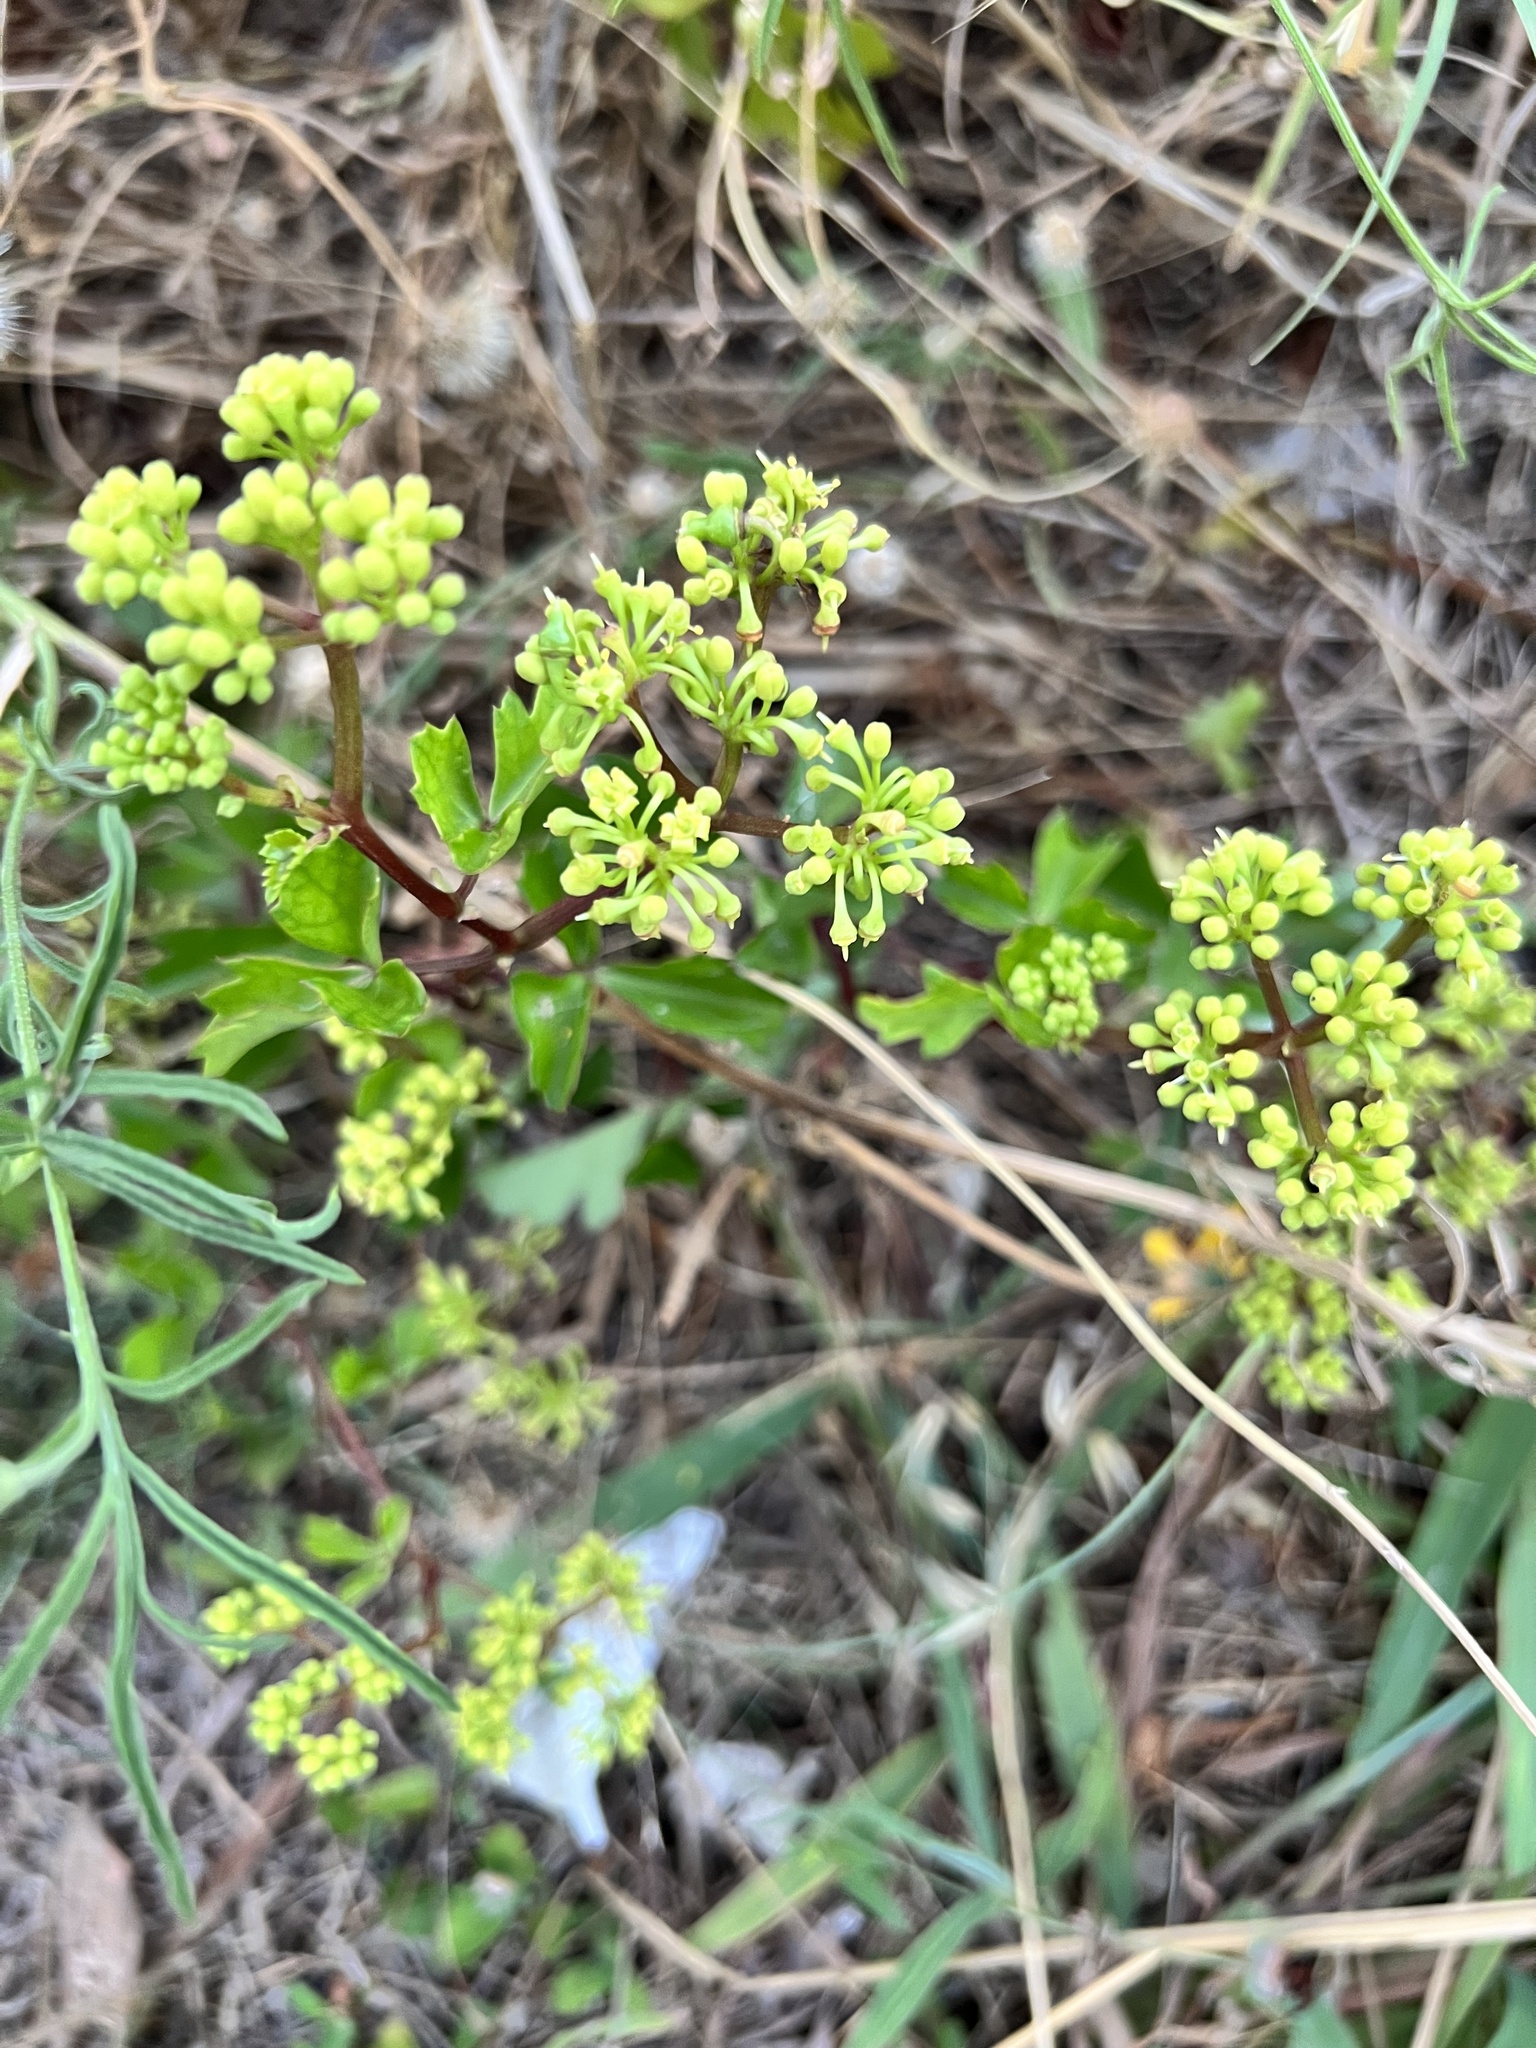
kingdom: Plantae
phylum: Tracheophyta
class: Magnoliopsida
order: Vitales
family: Vitaceae
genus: Cissus
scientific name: Cissus trifoliata
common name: Vine-sorrel
